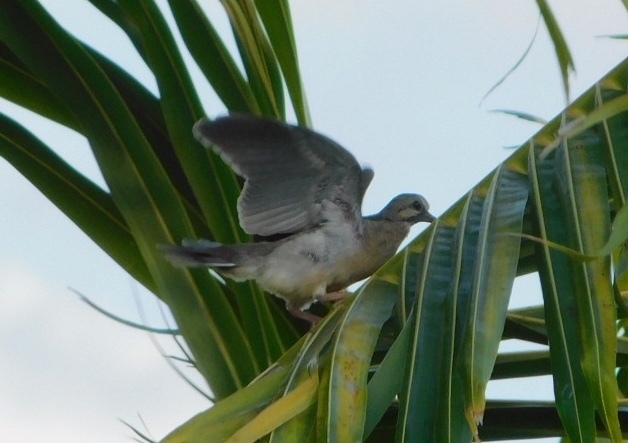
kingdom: Animalia
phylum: Chordata
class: Aves
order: Columbiformes
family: Columbidae
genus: Zenaida
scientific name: Zenaida macroura
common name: Mourning dove
